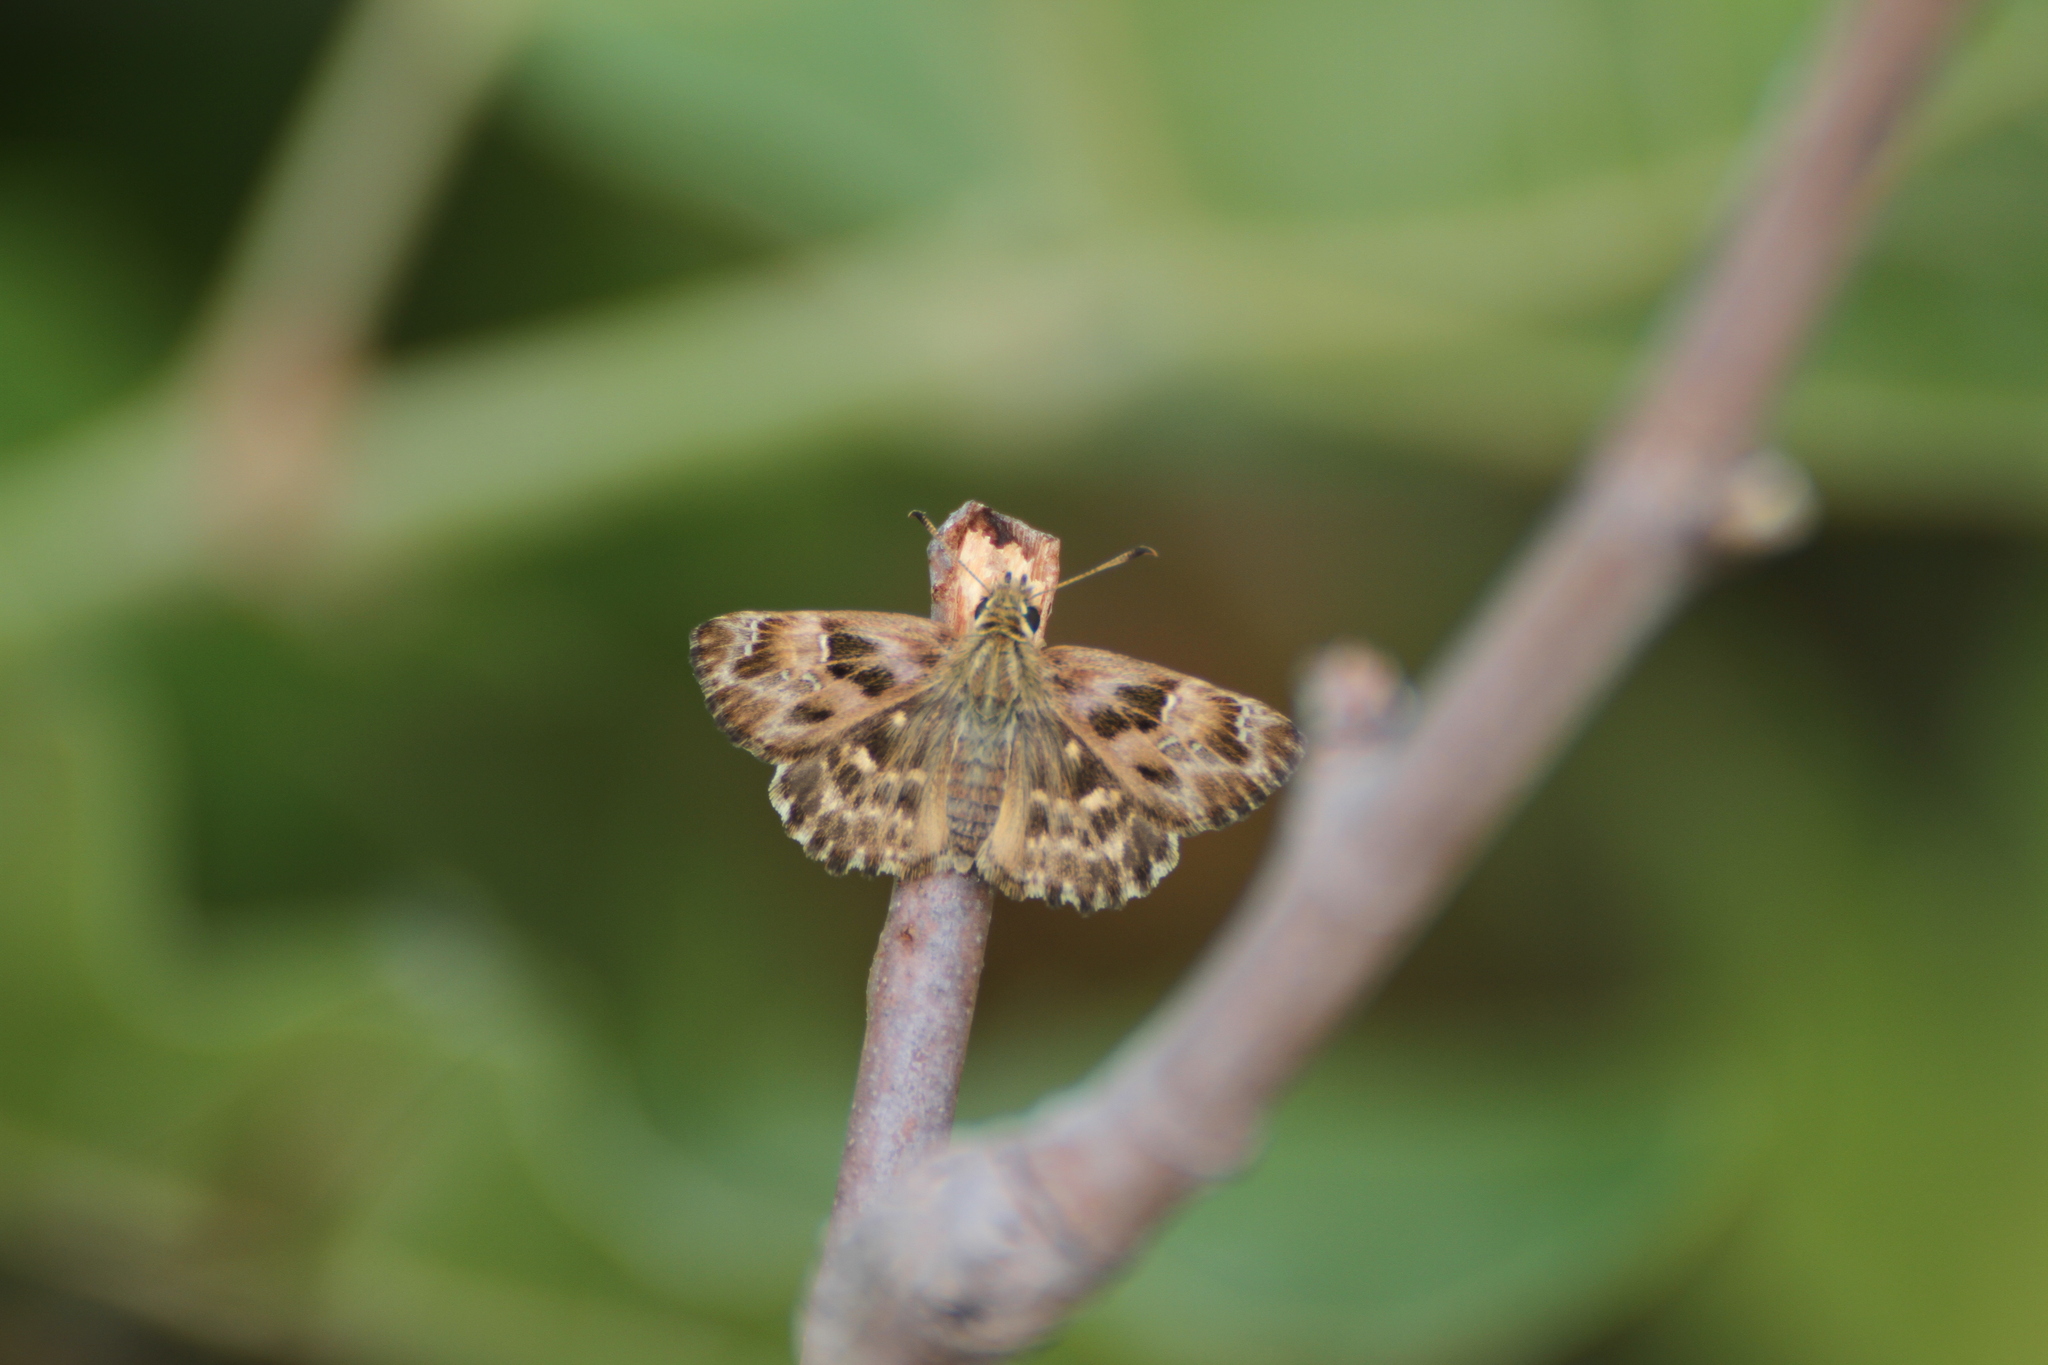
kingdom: Animalia
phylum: Arthropoda
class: Insecta
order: Lepidoptera
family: Hesperiidae
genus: Carcharodus
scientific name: Carcharodus alceae
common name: Mallow skipper
